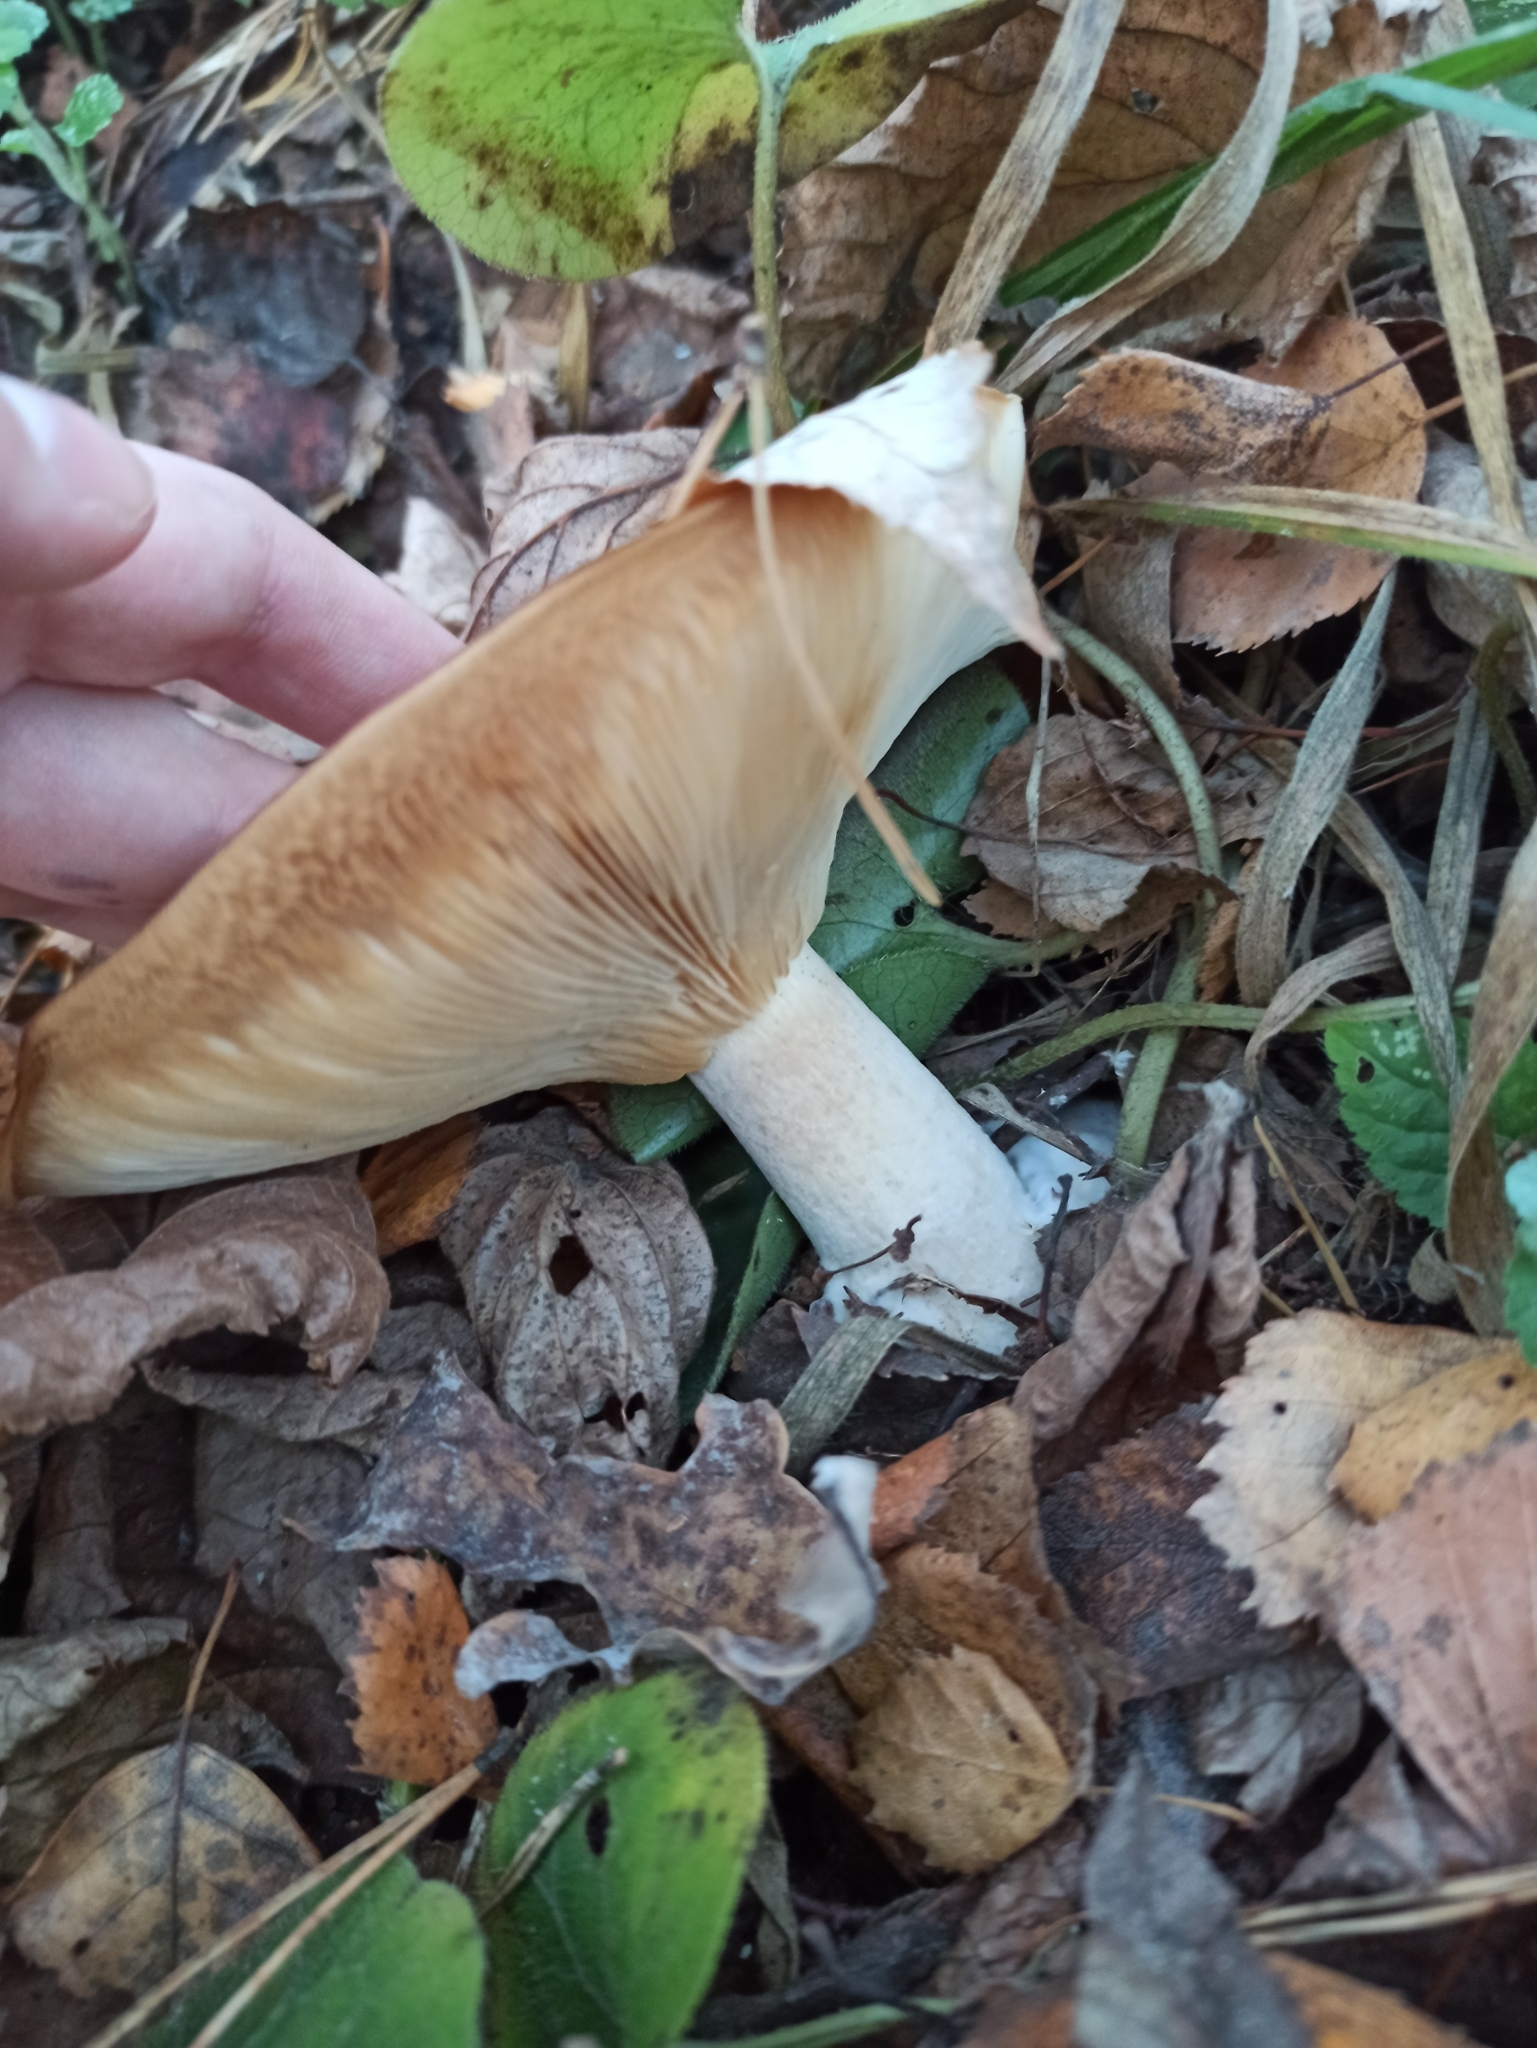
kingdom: Fungi
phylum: Basidiomycota
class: Agaricomycetes
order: Agaricales
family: Tricholomataceae
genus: Clitocybe
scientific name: Clitocybe nebularis
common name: Clouded agaric
